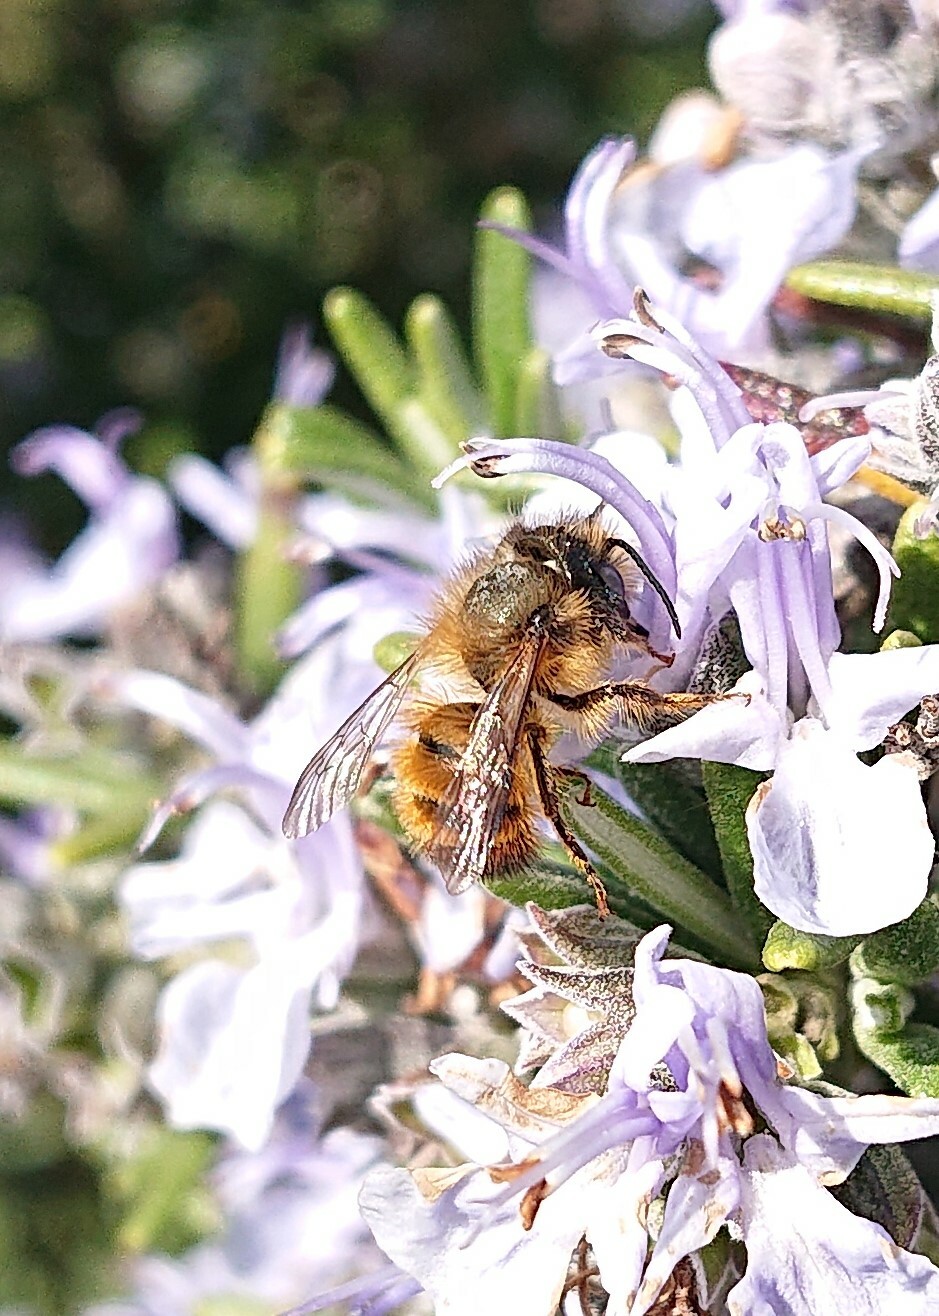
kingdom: Animalia
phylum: Arthropoda
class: Insecta
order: Hymenoptera
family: Megachilidae
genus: Osmia
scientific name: Osmia bicornis
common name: Red mason bee
